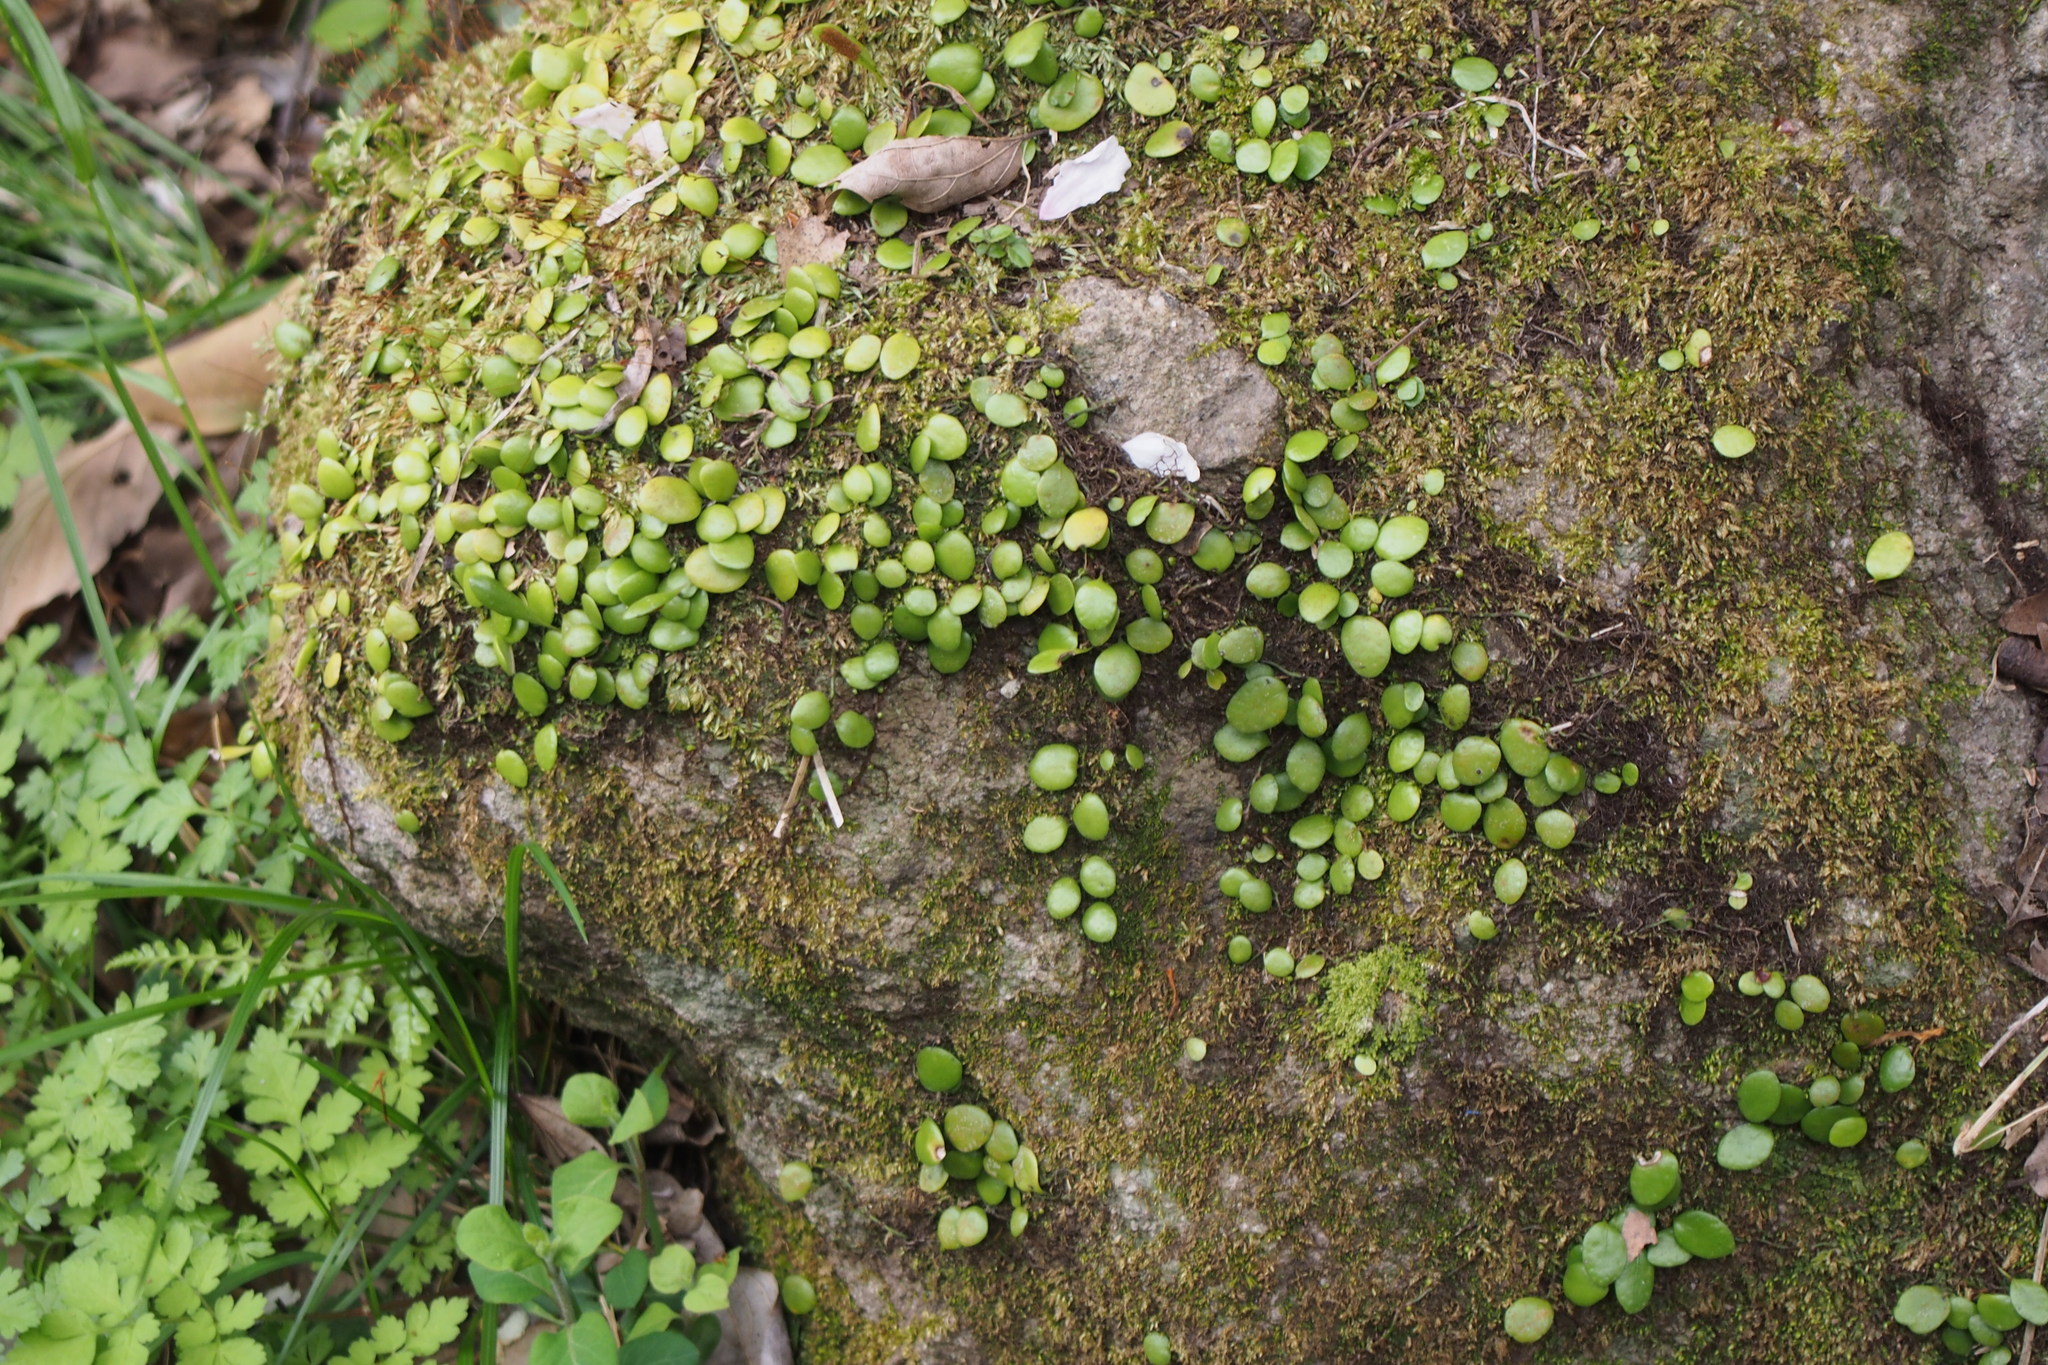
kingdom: Plantae
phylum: Tracheophyta
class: Polypodiopsida
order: Polypodiales
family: Polypodiaceae
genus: Lepisorus
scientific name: Lepisorus microphyllus
